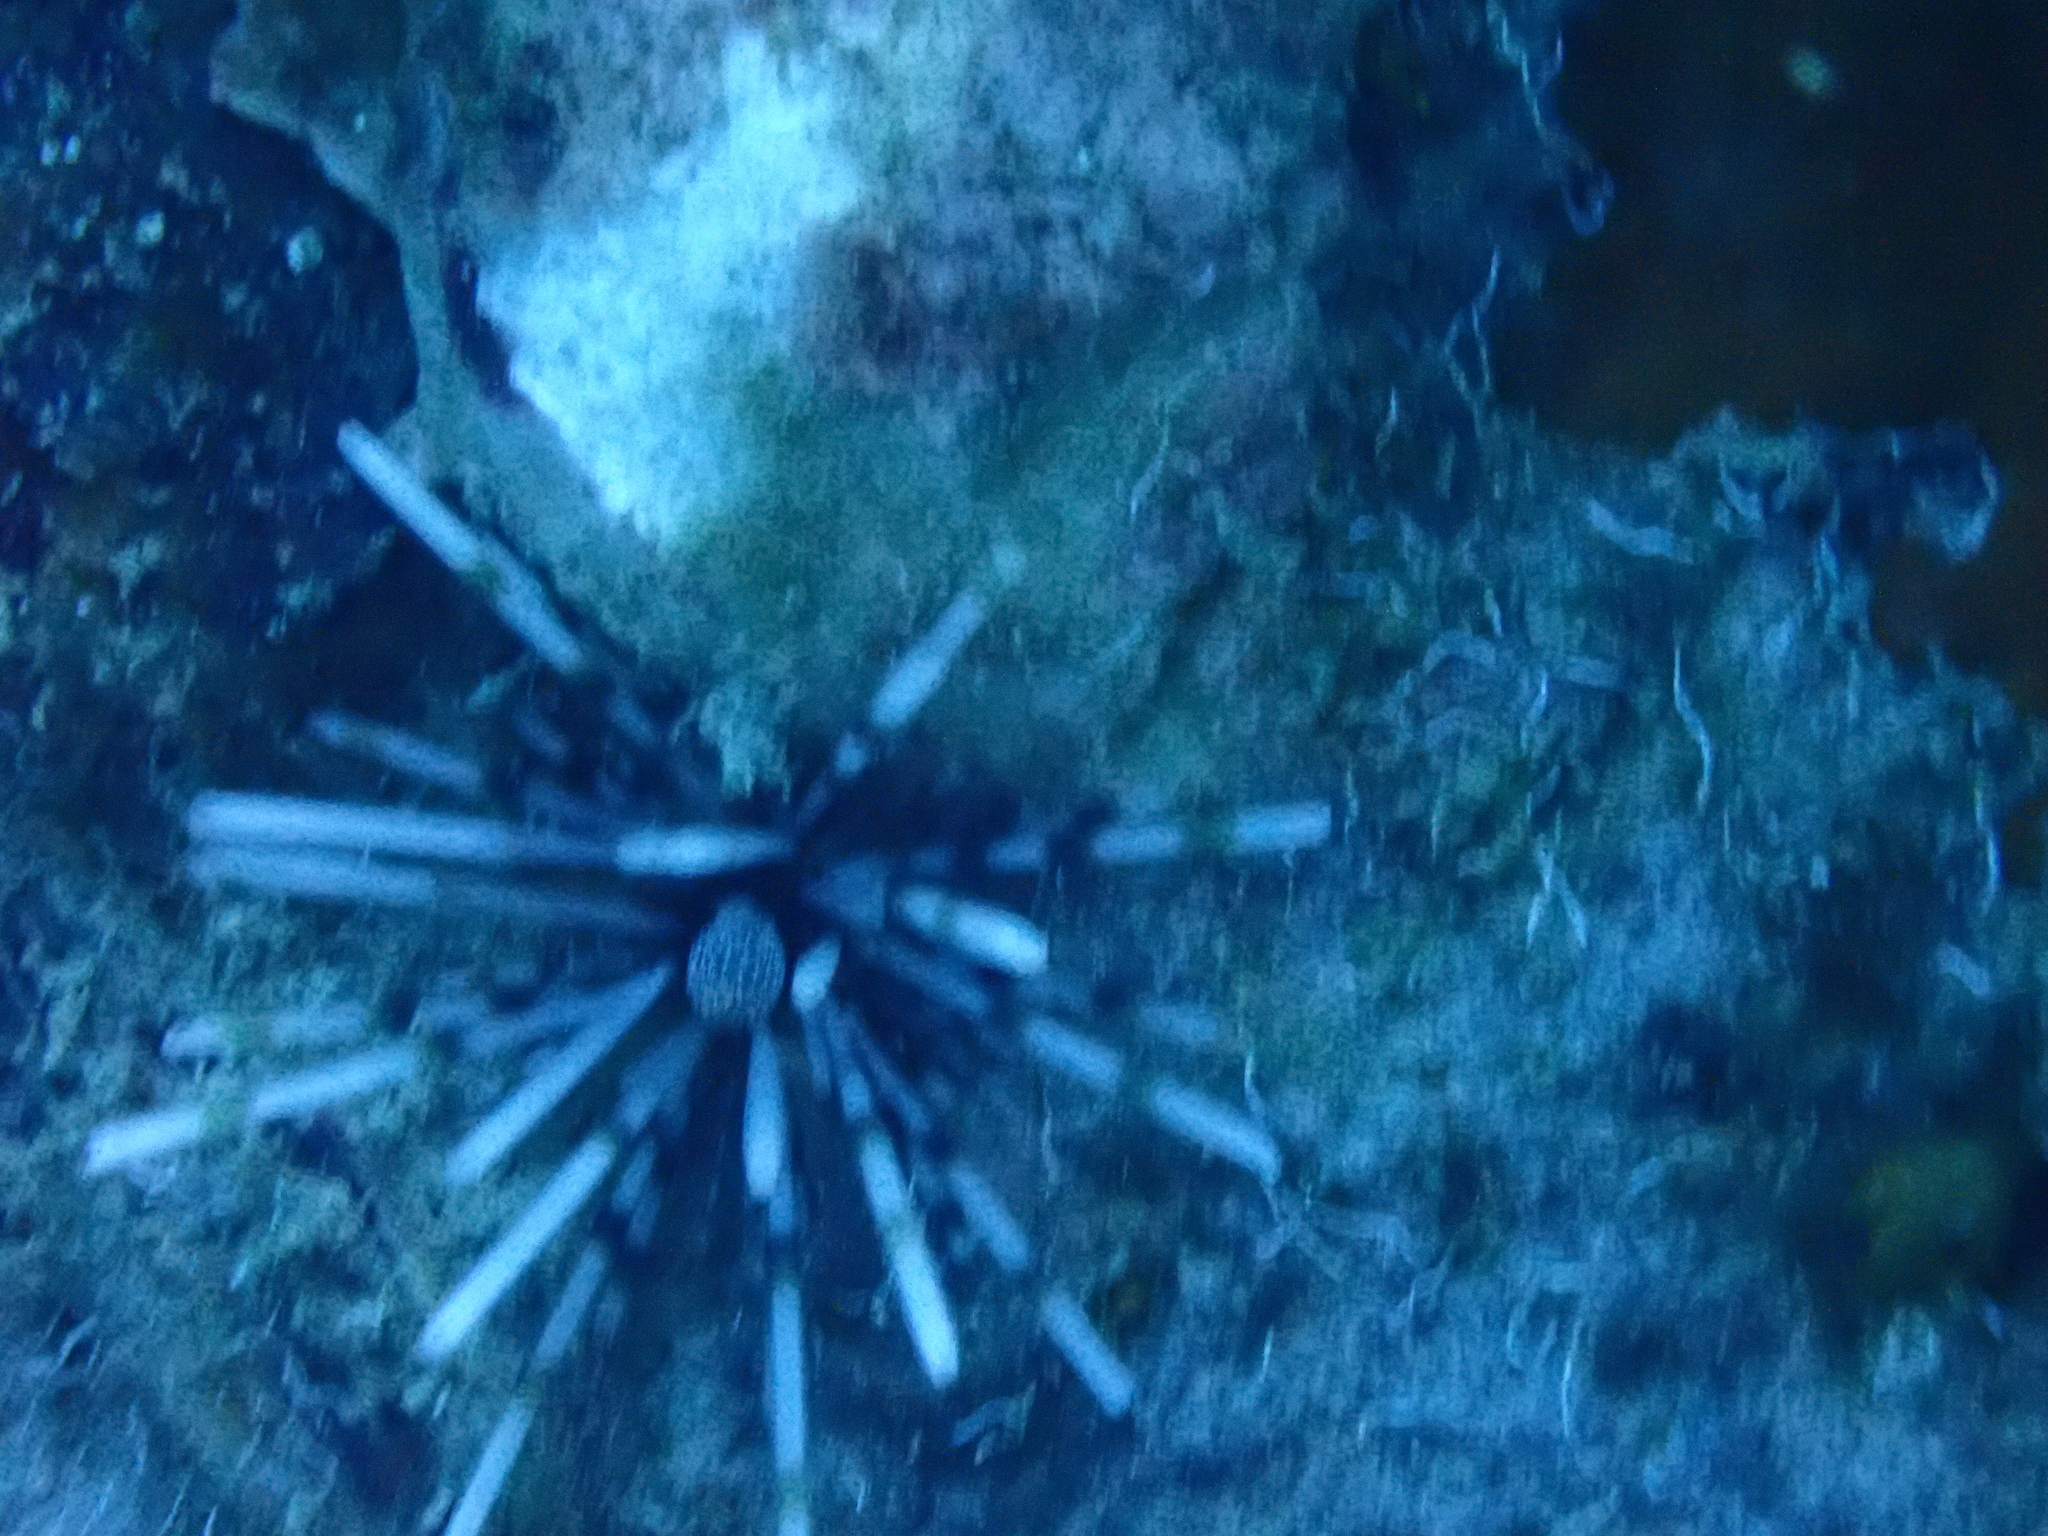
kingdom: Animalia
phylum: Echinodermata
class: Echinoidea
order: Diadematoida
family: Diadematidae
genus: Echinothrix
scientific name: Echinothrix calamaris
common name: Banded sea urchin
